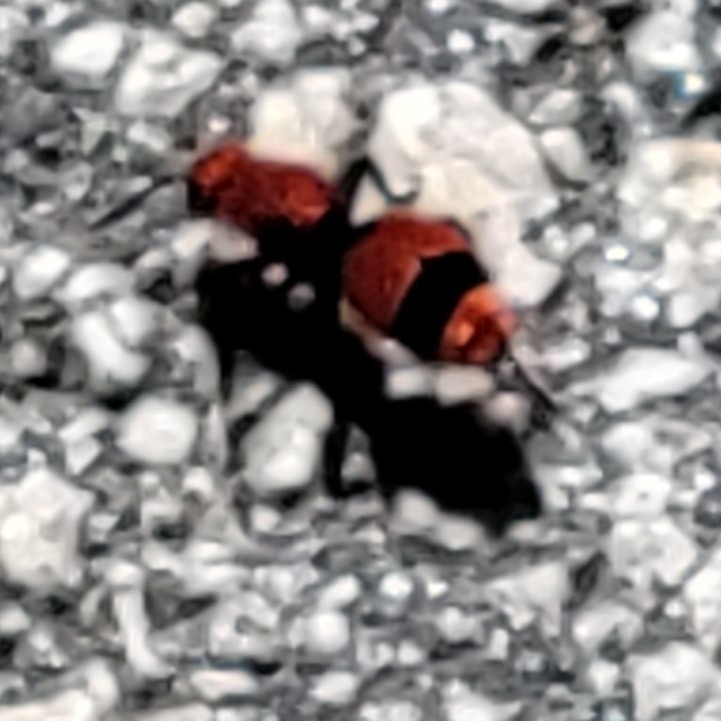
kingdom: Animalia
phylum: Arthropoda
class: Insecta
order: Hymenoptera
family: Mutillidae
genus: Dasymutilla
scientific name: Dasymutilla occidentalis
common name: Common eastern velvet ant
